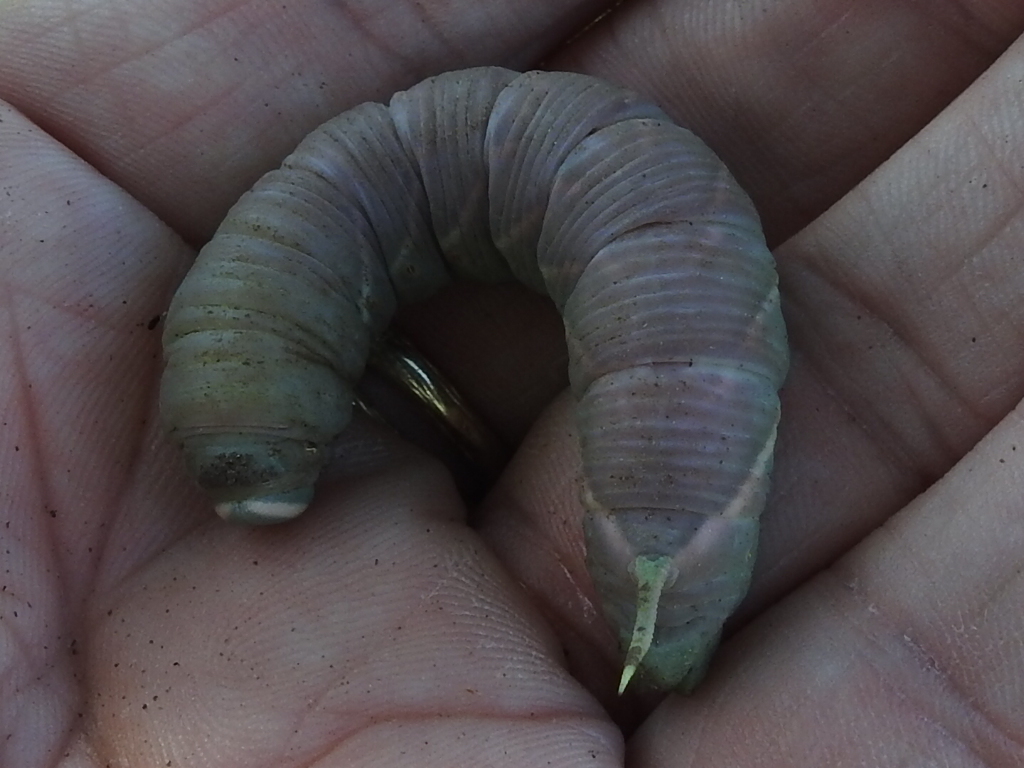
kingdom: Animalia
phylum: Arthropoda
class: Insecta
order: Lepidoptera
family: Sphingidae
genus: Ceratomia
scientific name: Ceratomia undulosa
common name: Waved sphinx
